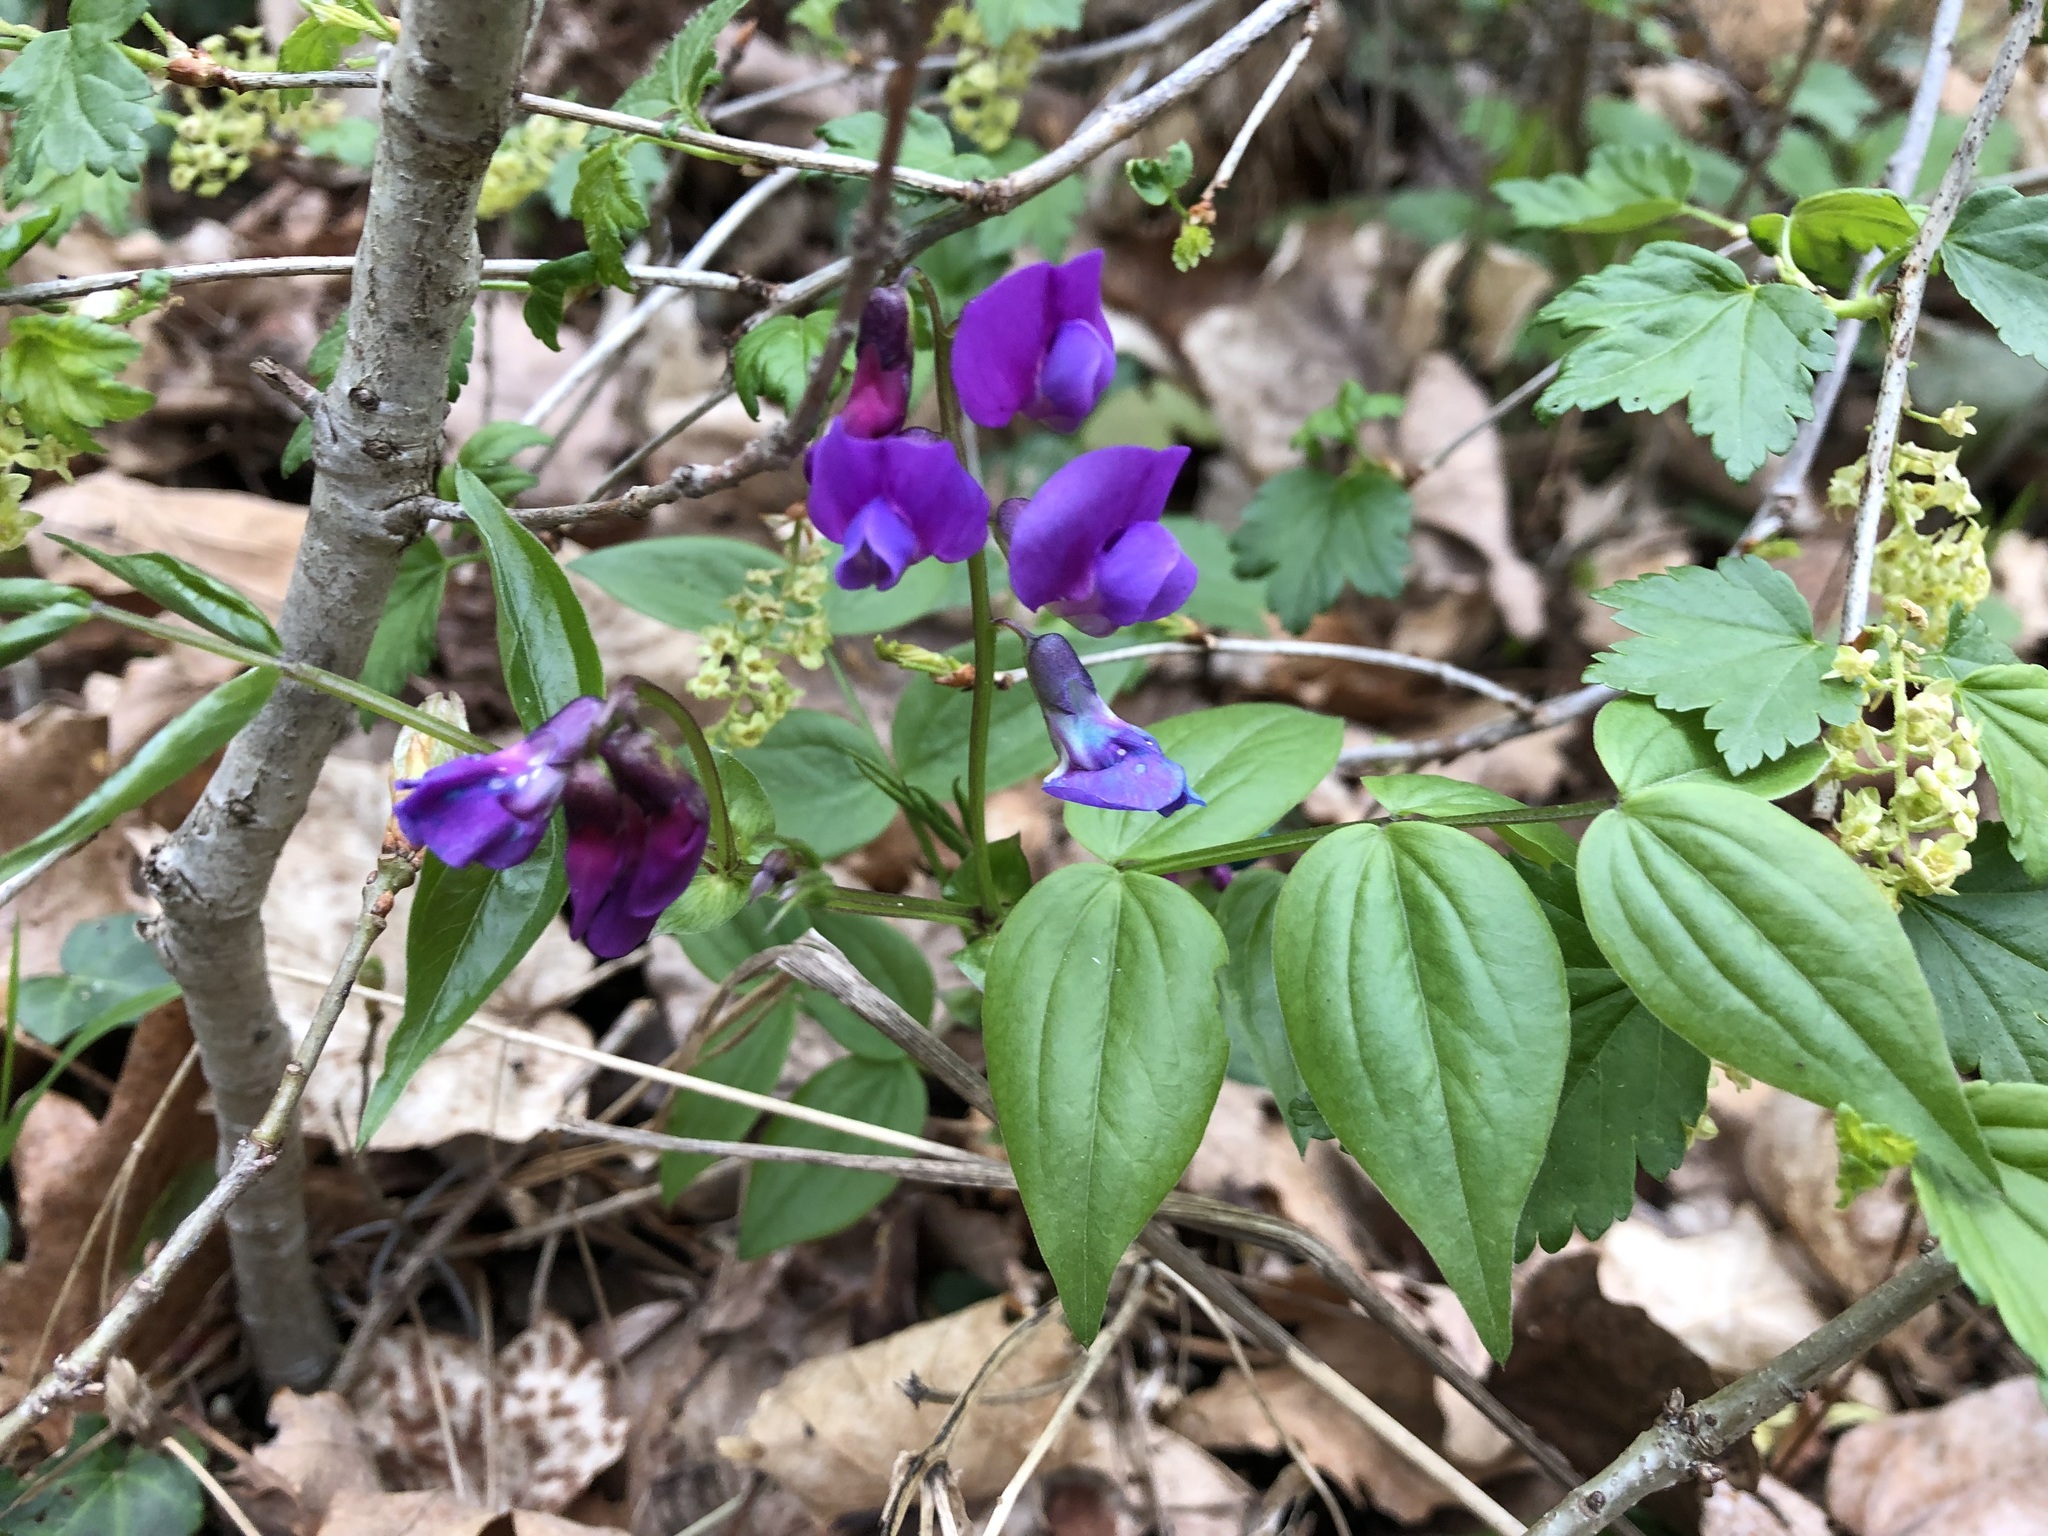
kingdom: Plantae
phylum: Tracheophyta
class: Magnoliopsida
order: Fabales
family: Fabaceae
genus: Lathyrus
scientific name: Lathyrus vernus
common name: Spring pea
